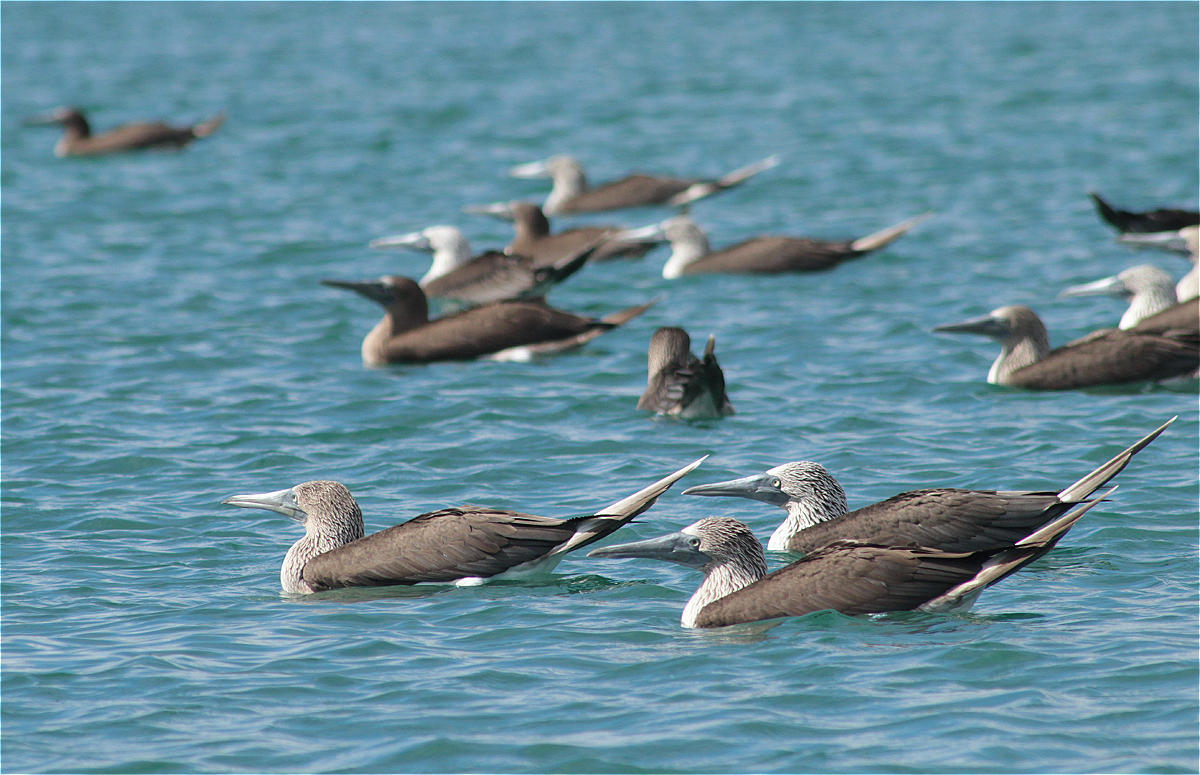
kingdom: Animalia
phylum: Chordata
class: Aves
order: Suliformes
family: Sulidae
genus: Sula
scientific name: Sula nebouxii
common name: Blue-footed booby
